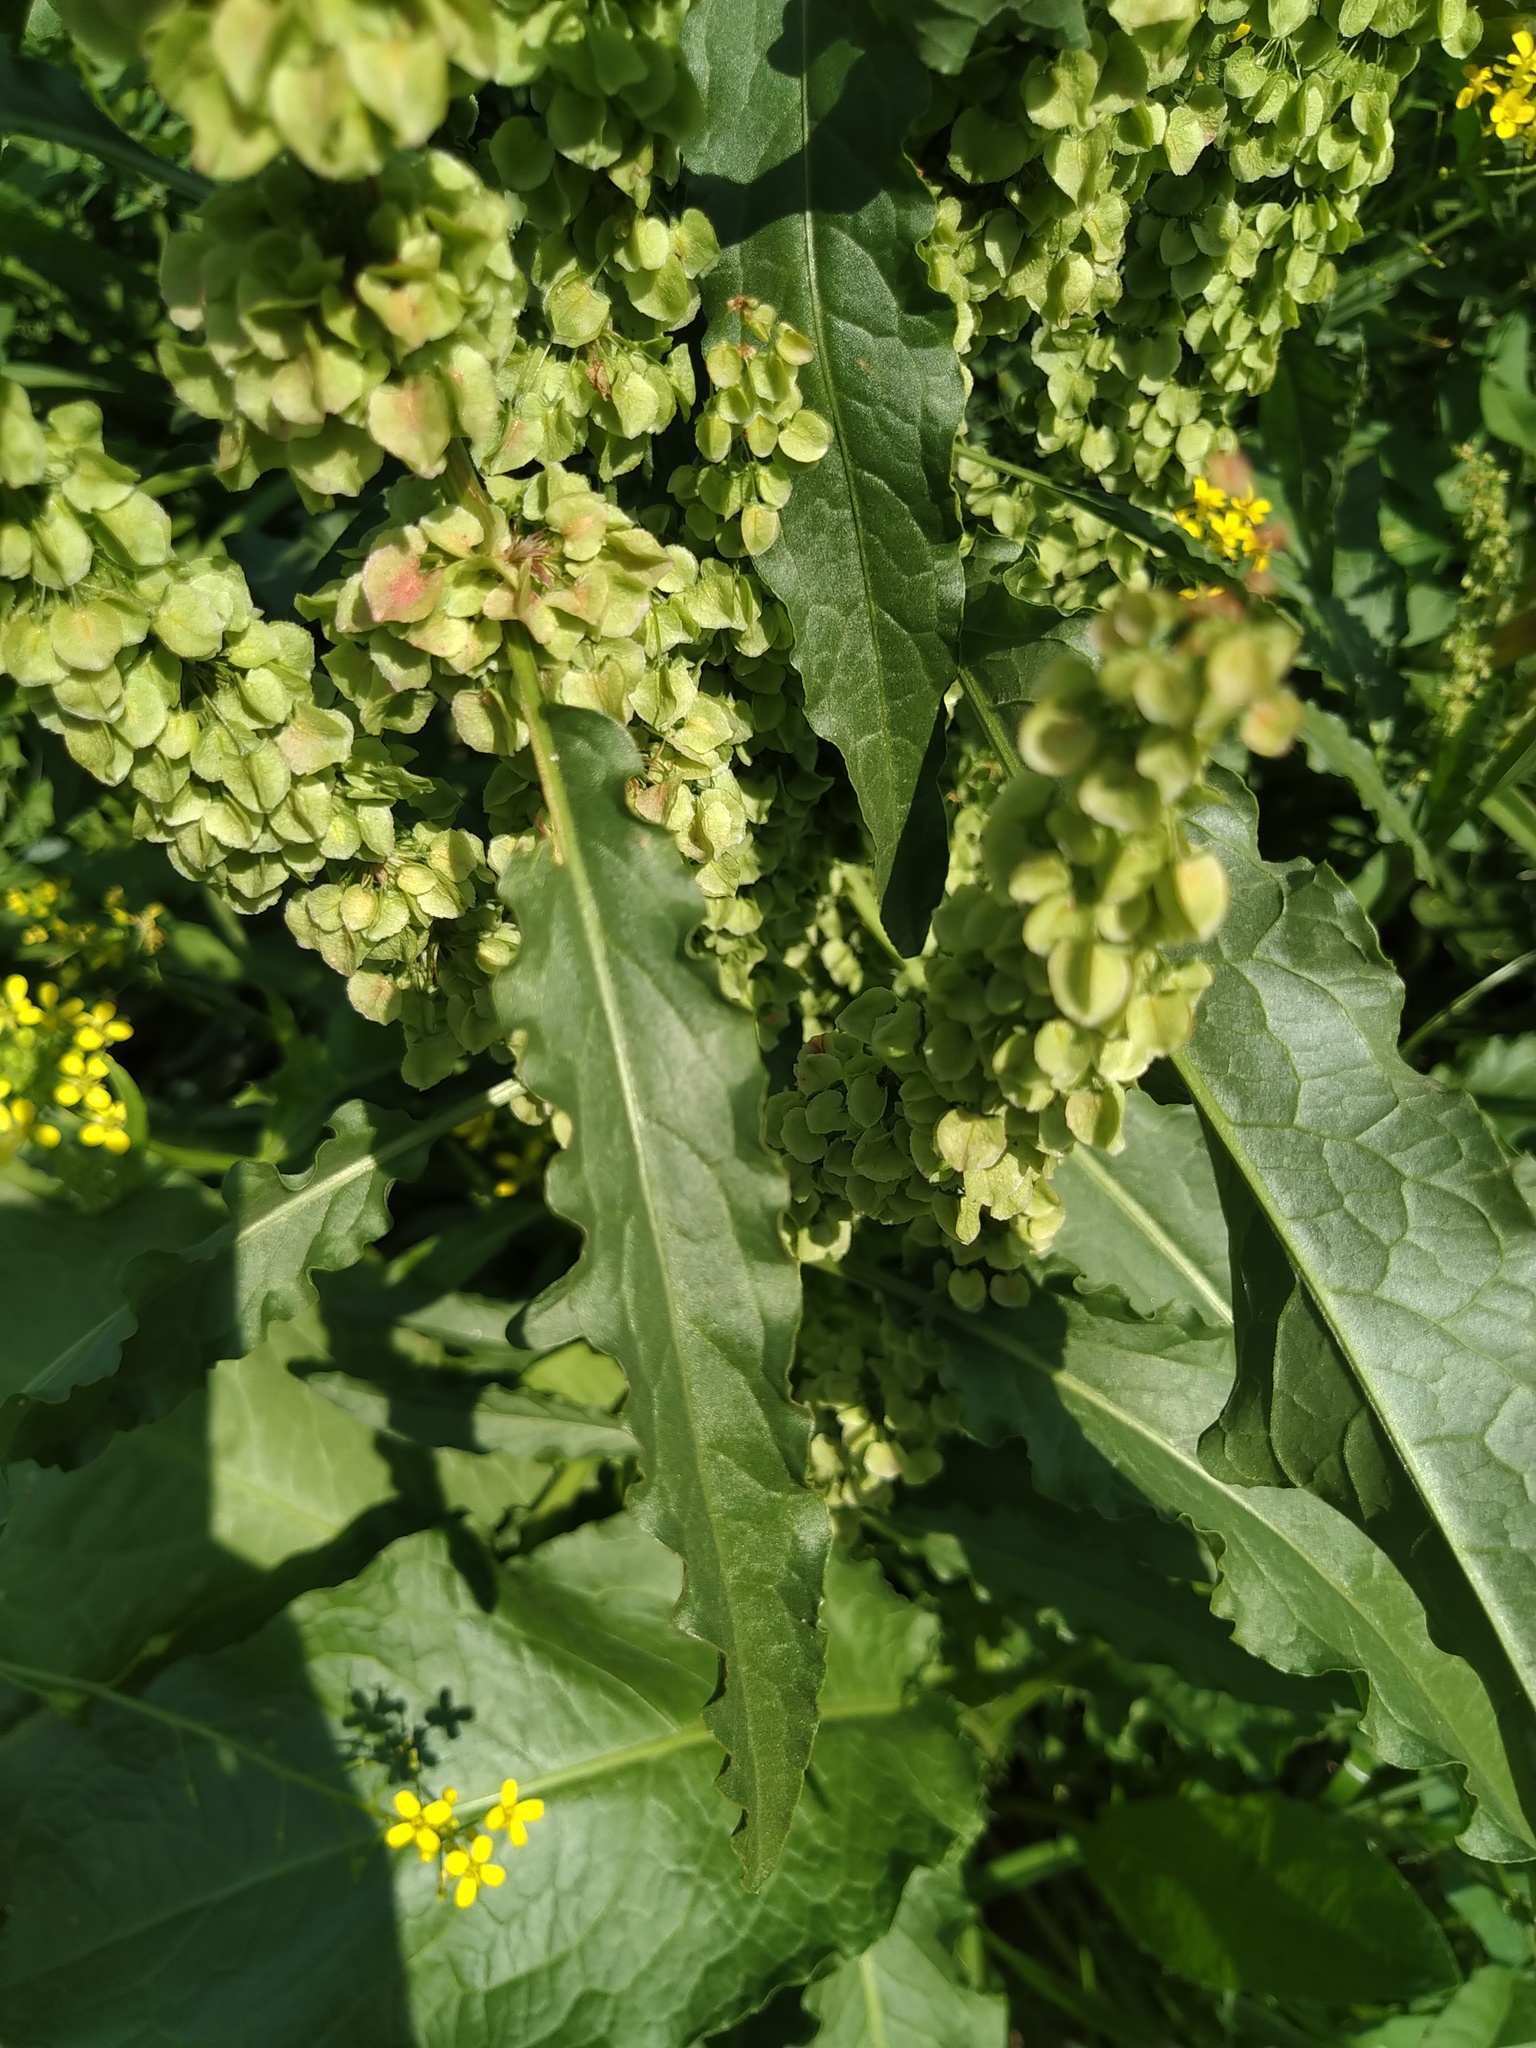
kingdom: Plantae
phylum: Tracheophyta
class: Magnoliopsida
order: Caryophyllales
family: Polygonaceae
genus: Rumex
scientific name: Rumex crispus
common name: Curled dock
